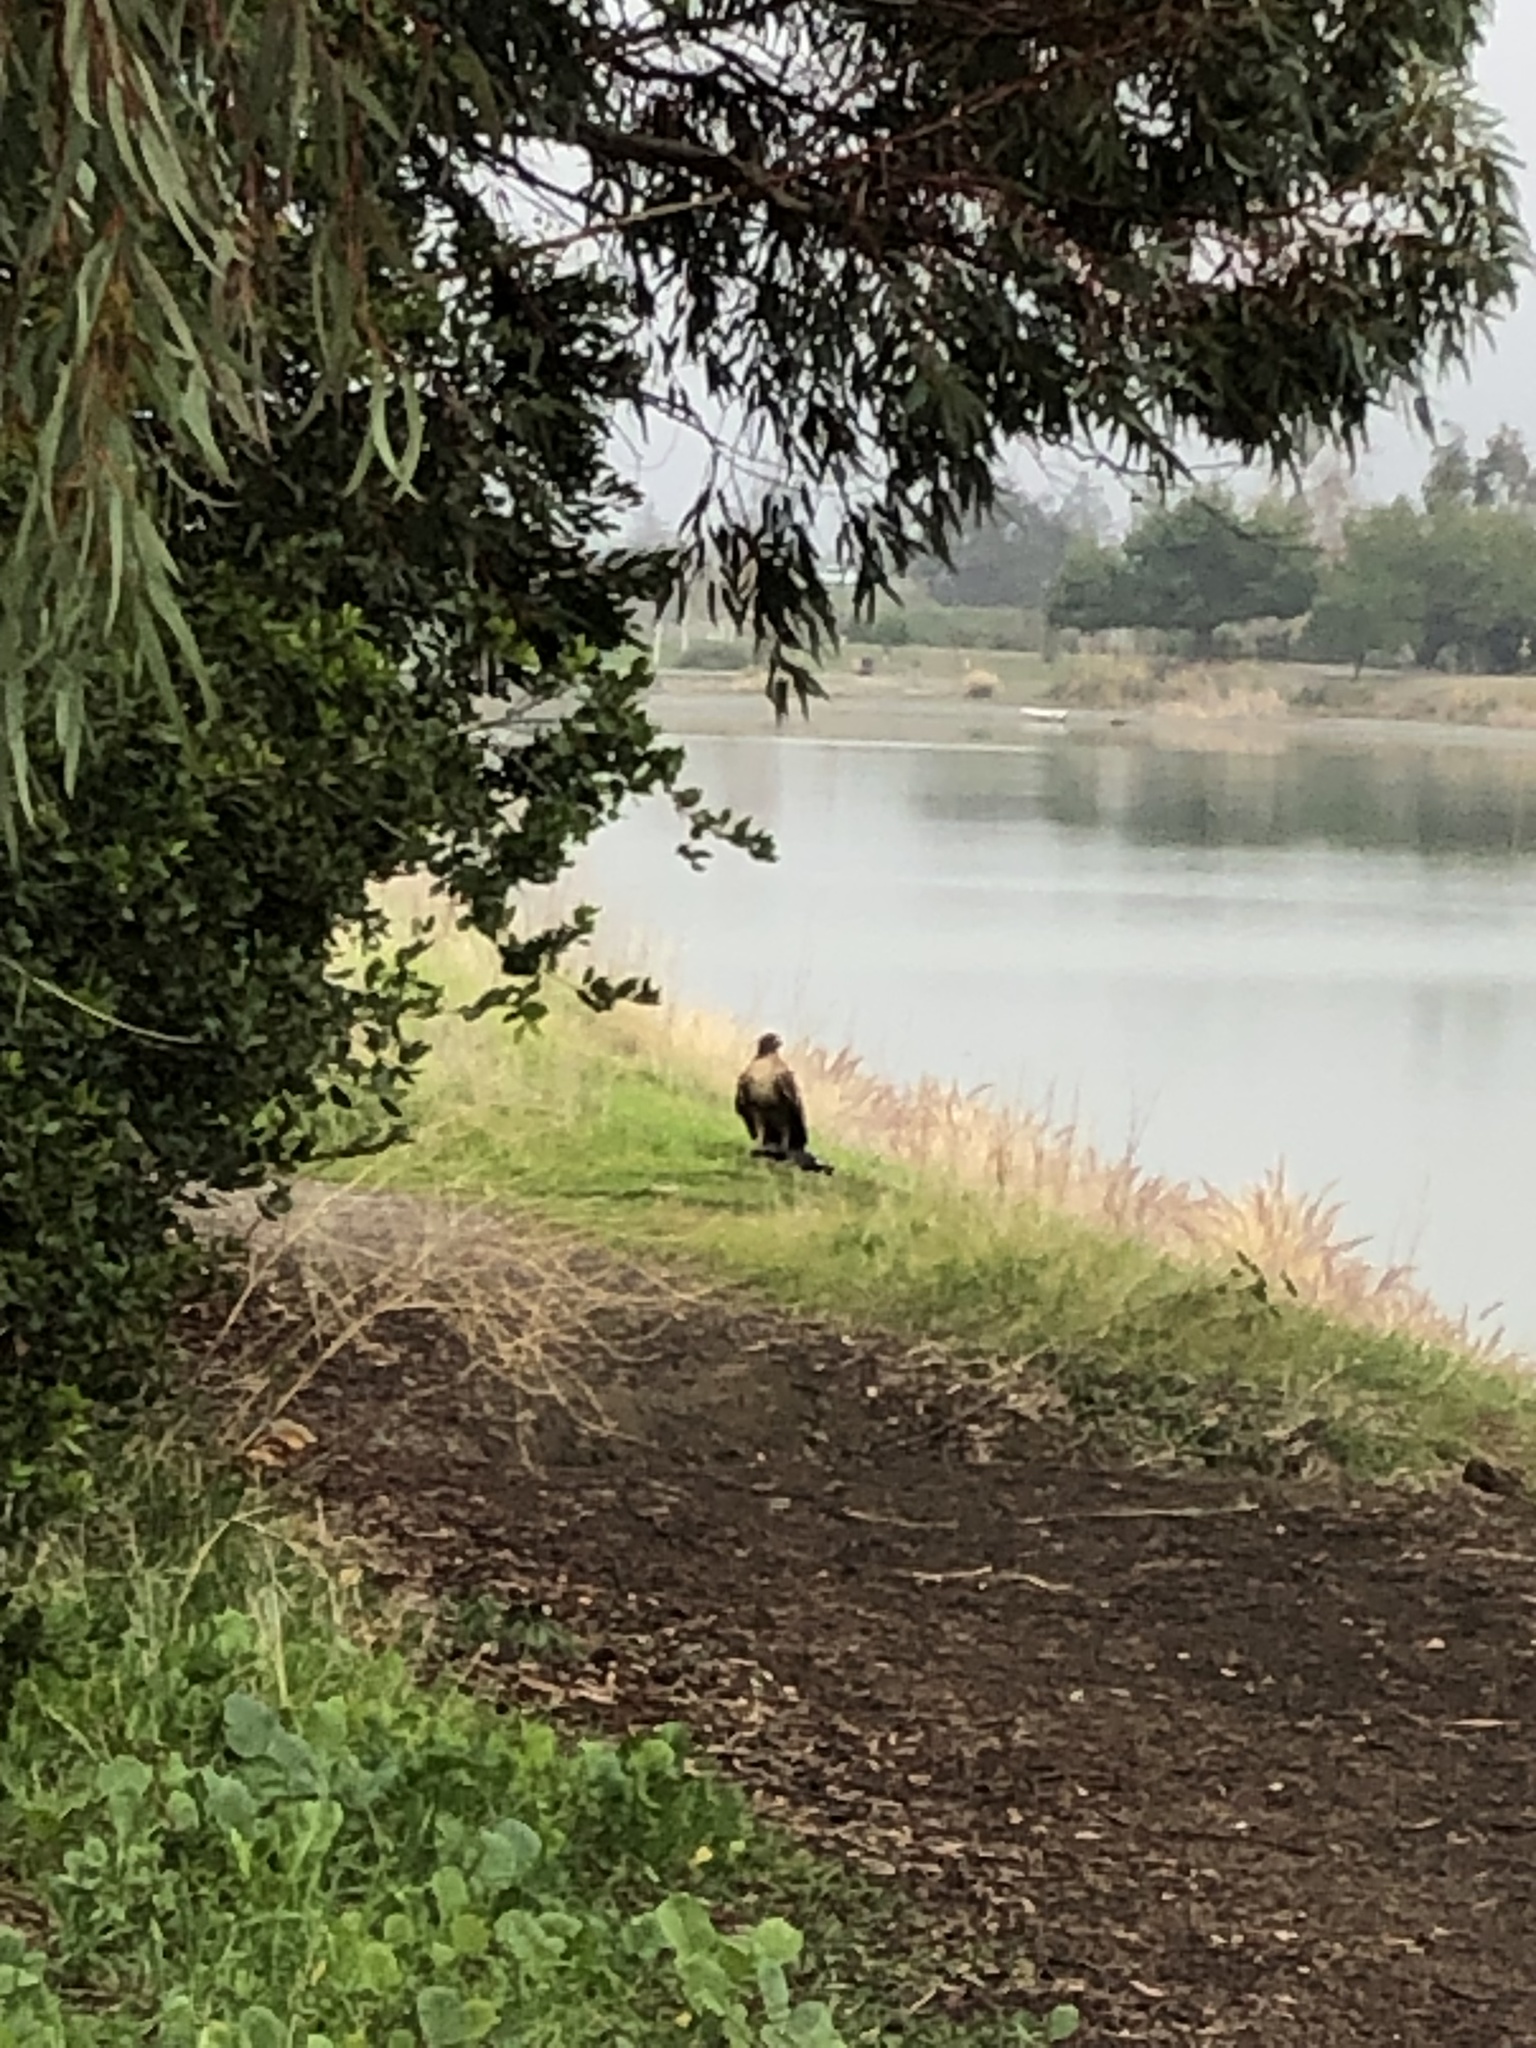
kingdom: Animalia
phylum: Chordata
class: Aves
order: Accipitriformes
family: Accipitridae
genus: Buteo
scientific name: Buteo jamaicensis
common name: Red-tailed hawk
